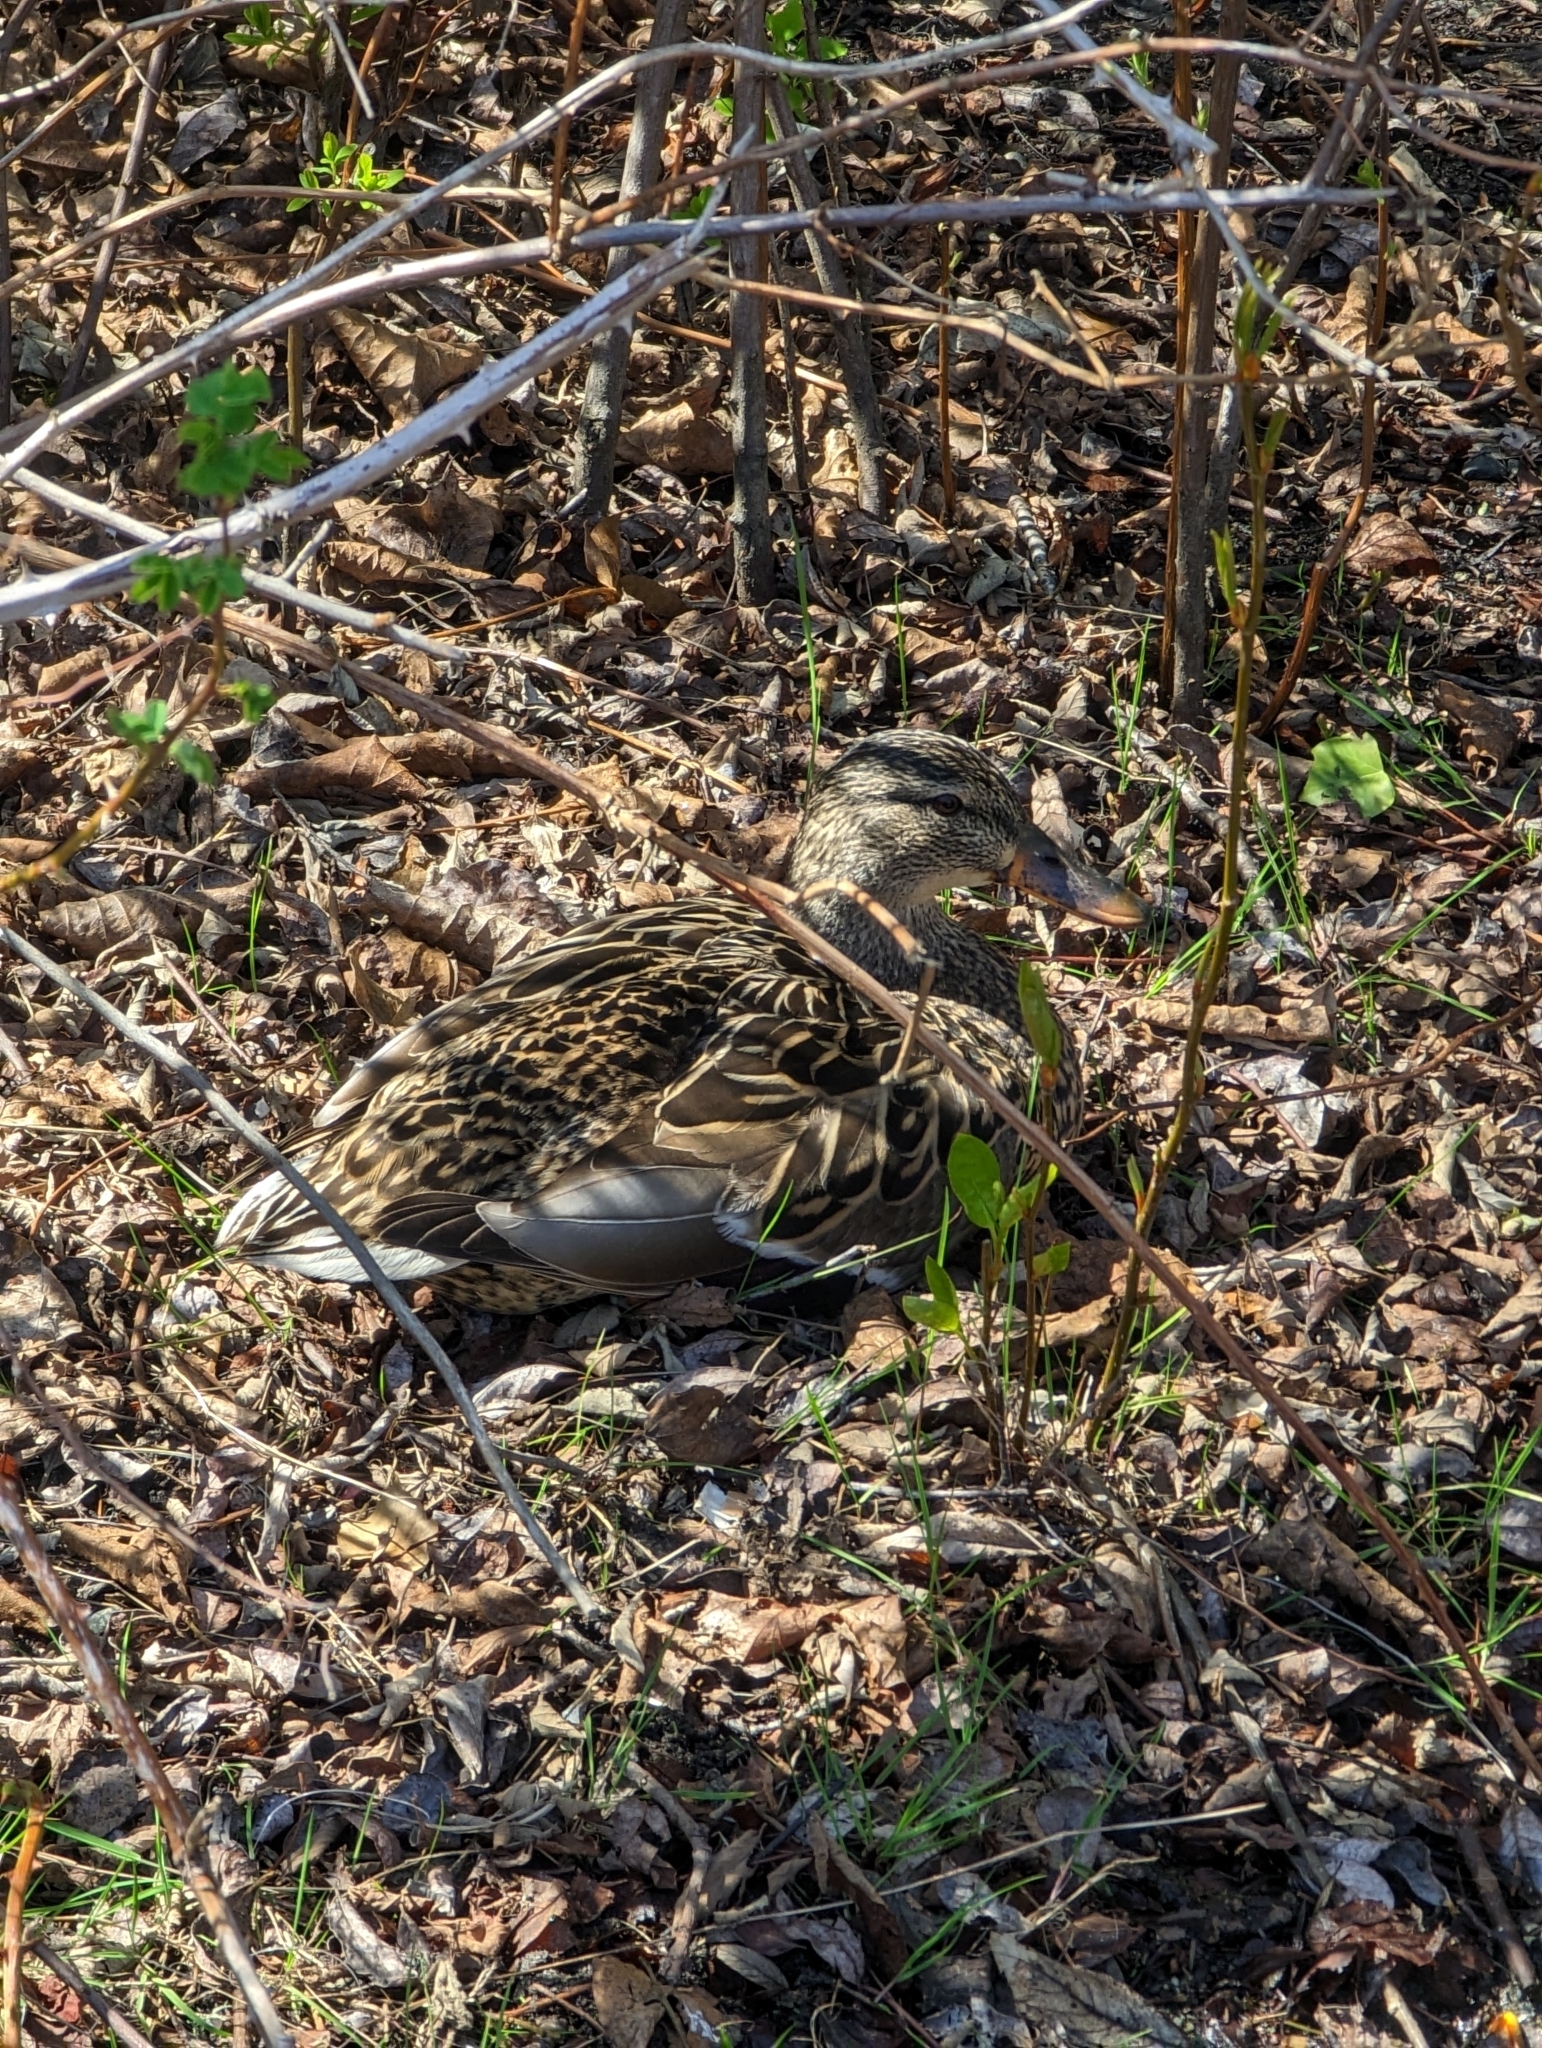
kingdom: Animalia
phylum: Chordata
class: Aves
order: Anseriformes
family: Anatidae
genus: Anas
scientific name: Anas platyrhynchos
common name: Mallard
